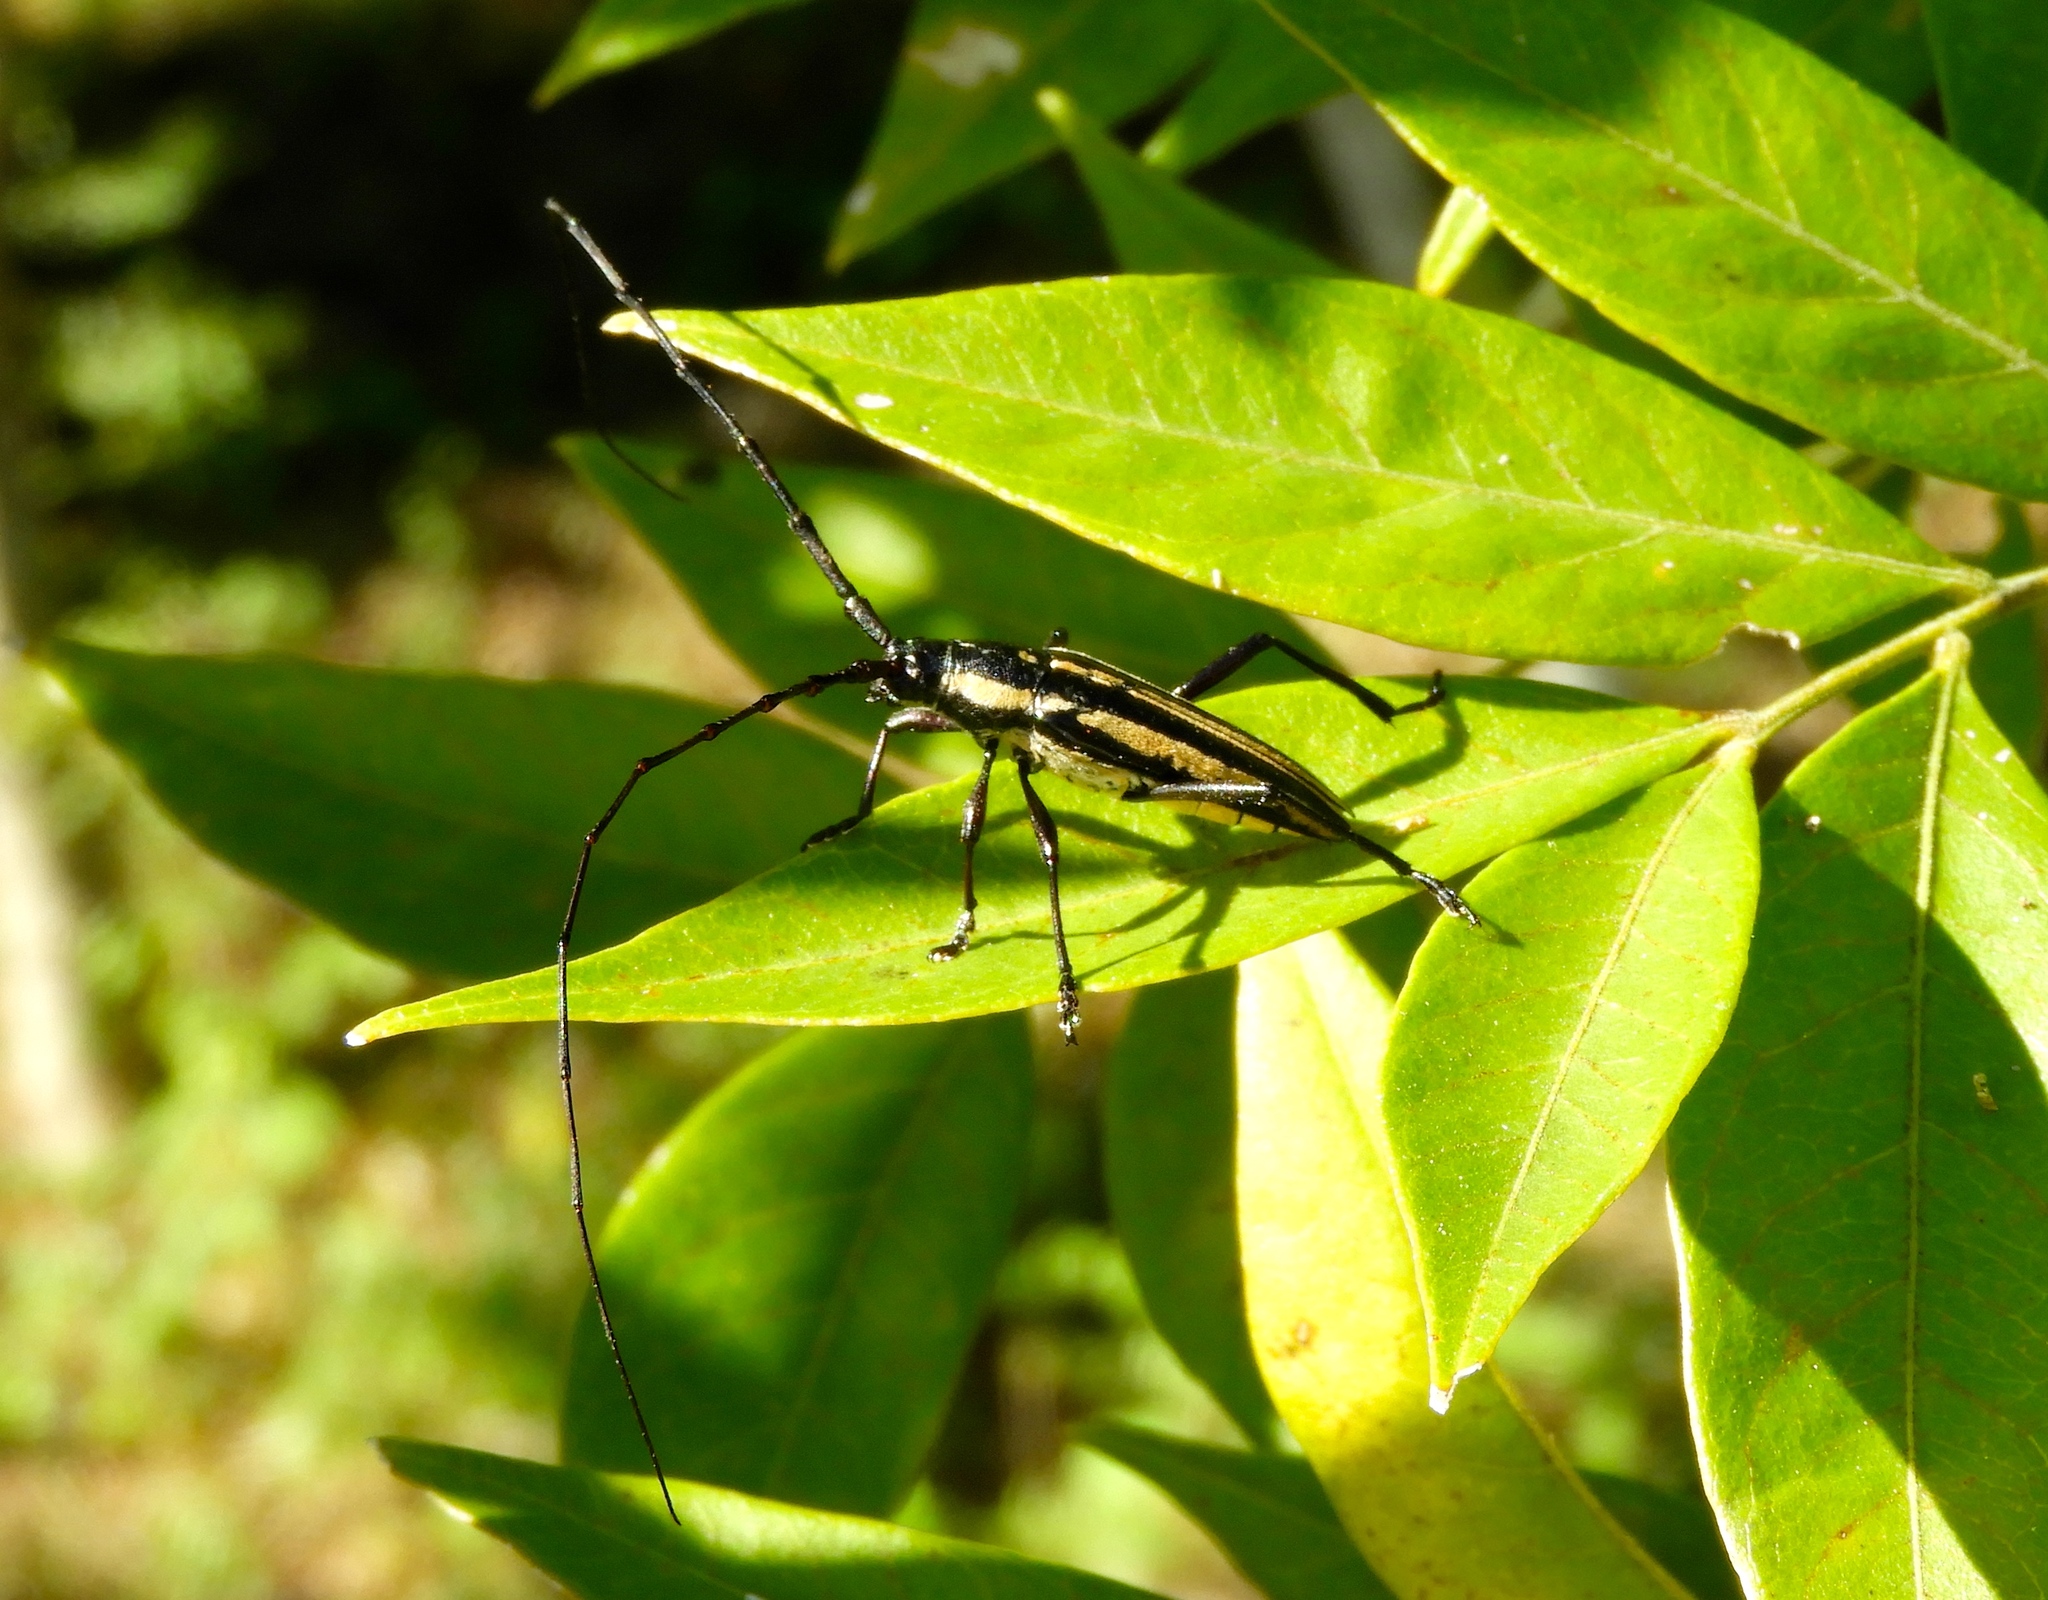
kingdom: Animalia
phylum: Arthropoda
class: Insecta
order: Coleoptera
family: Cerambycidae
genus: Sphaenothecus
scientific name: Sphaenothecus trilineatus
